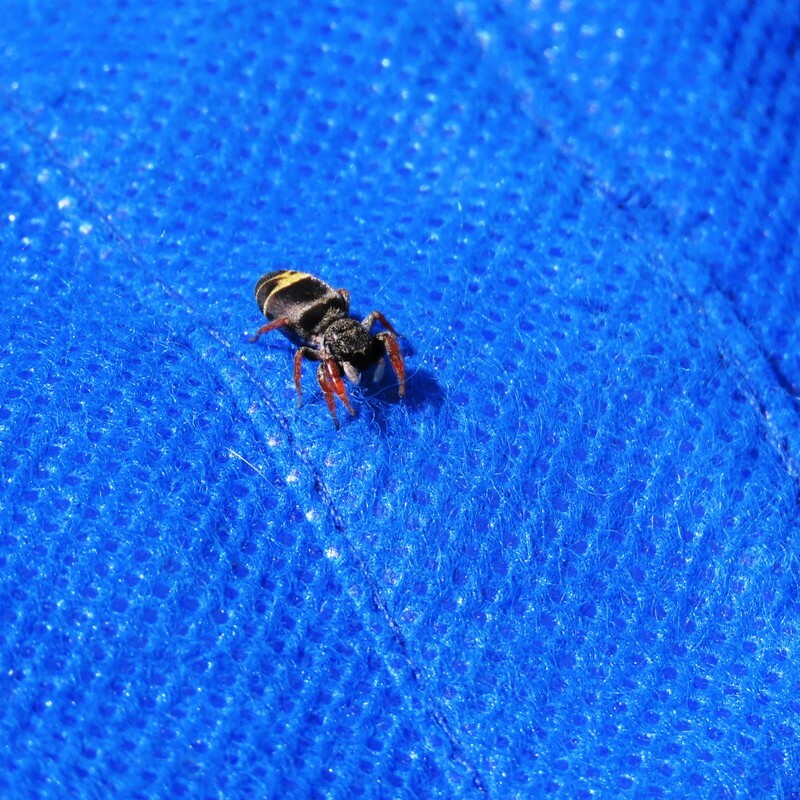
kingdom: Animalia
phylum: Arthropoda
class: Arachnida
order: Araneae
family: Salticidae
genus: Apricia
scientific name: Apricia jovialis
